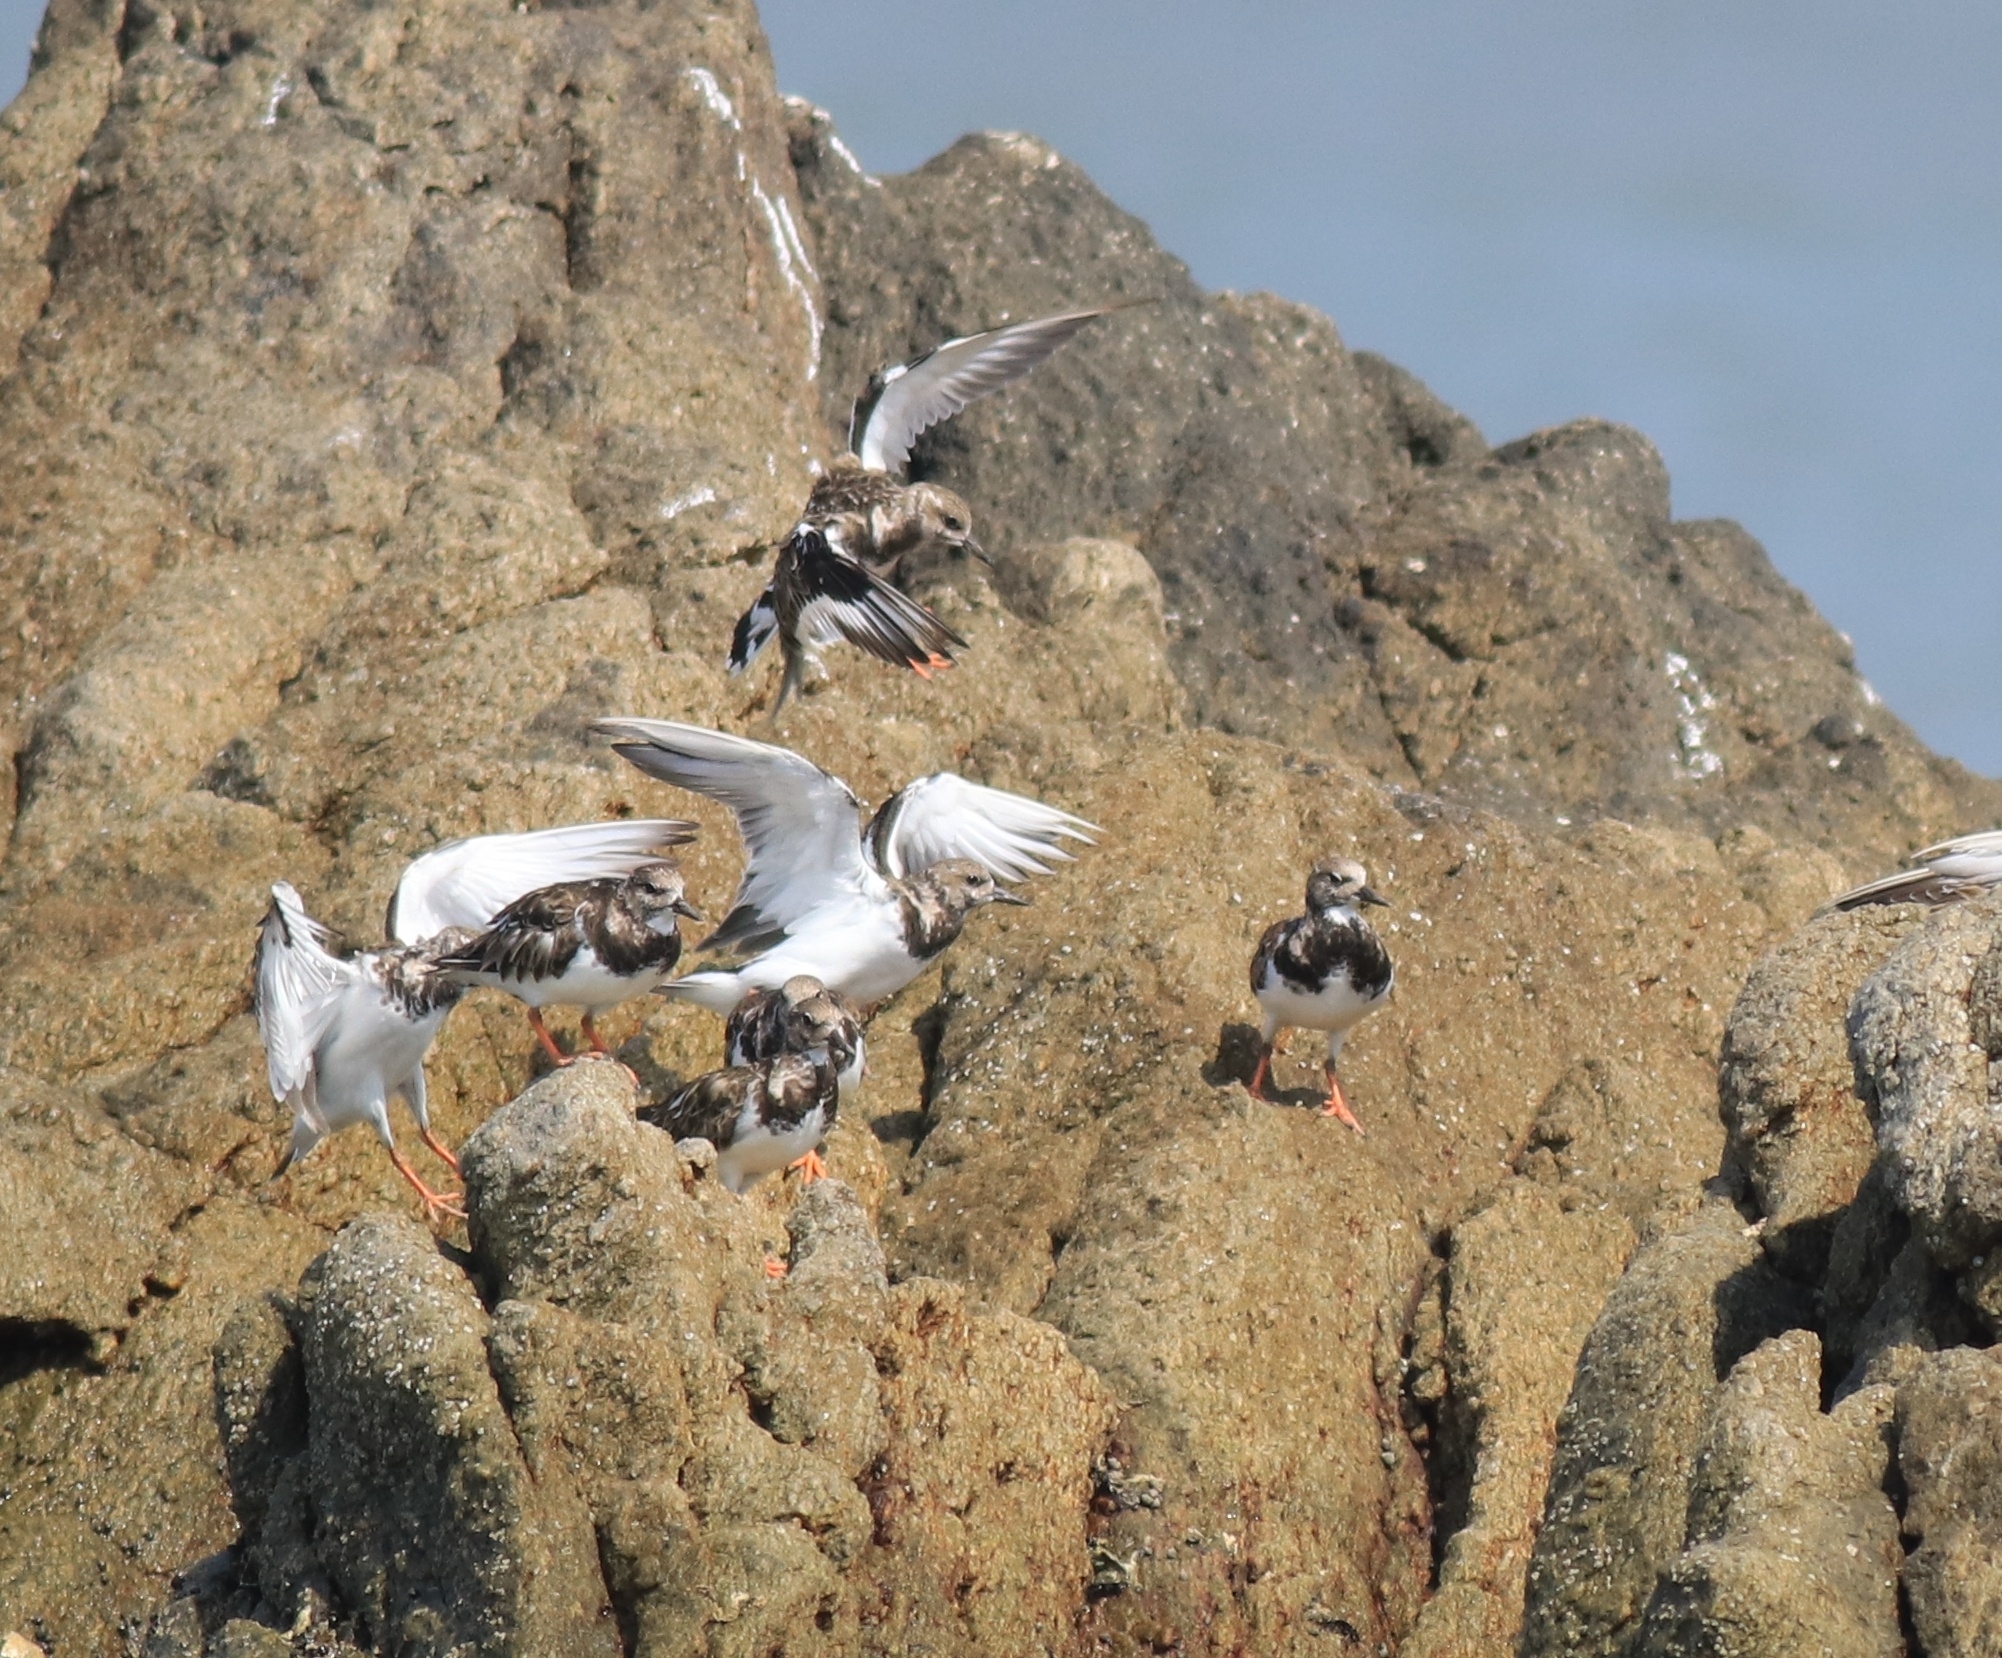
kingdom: Animalia
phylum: Chordata
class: Aves
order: Charadriiformes
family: Scolopacidae
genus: Arenaria
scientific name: Arenaria interpres
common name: Ruddy turnstone
